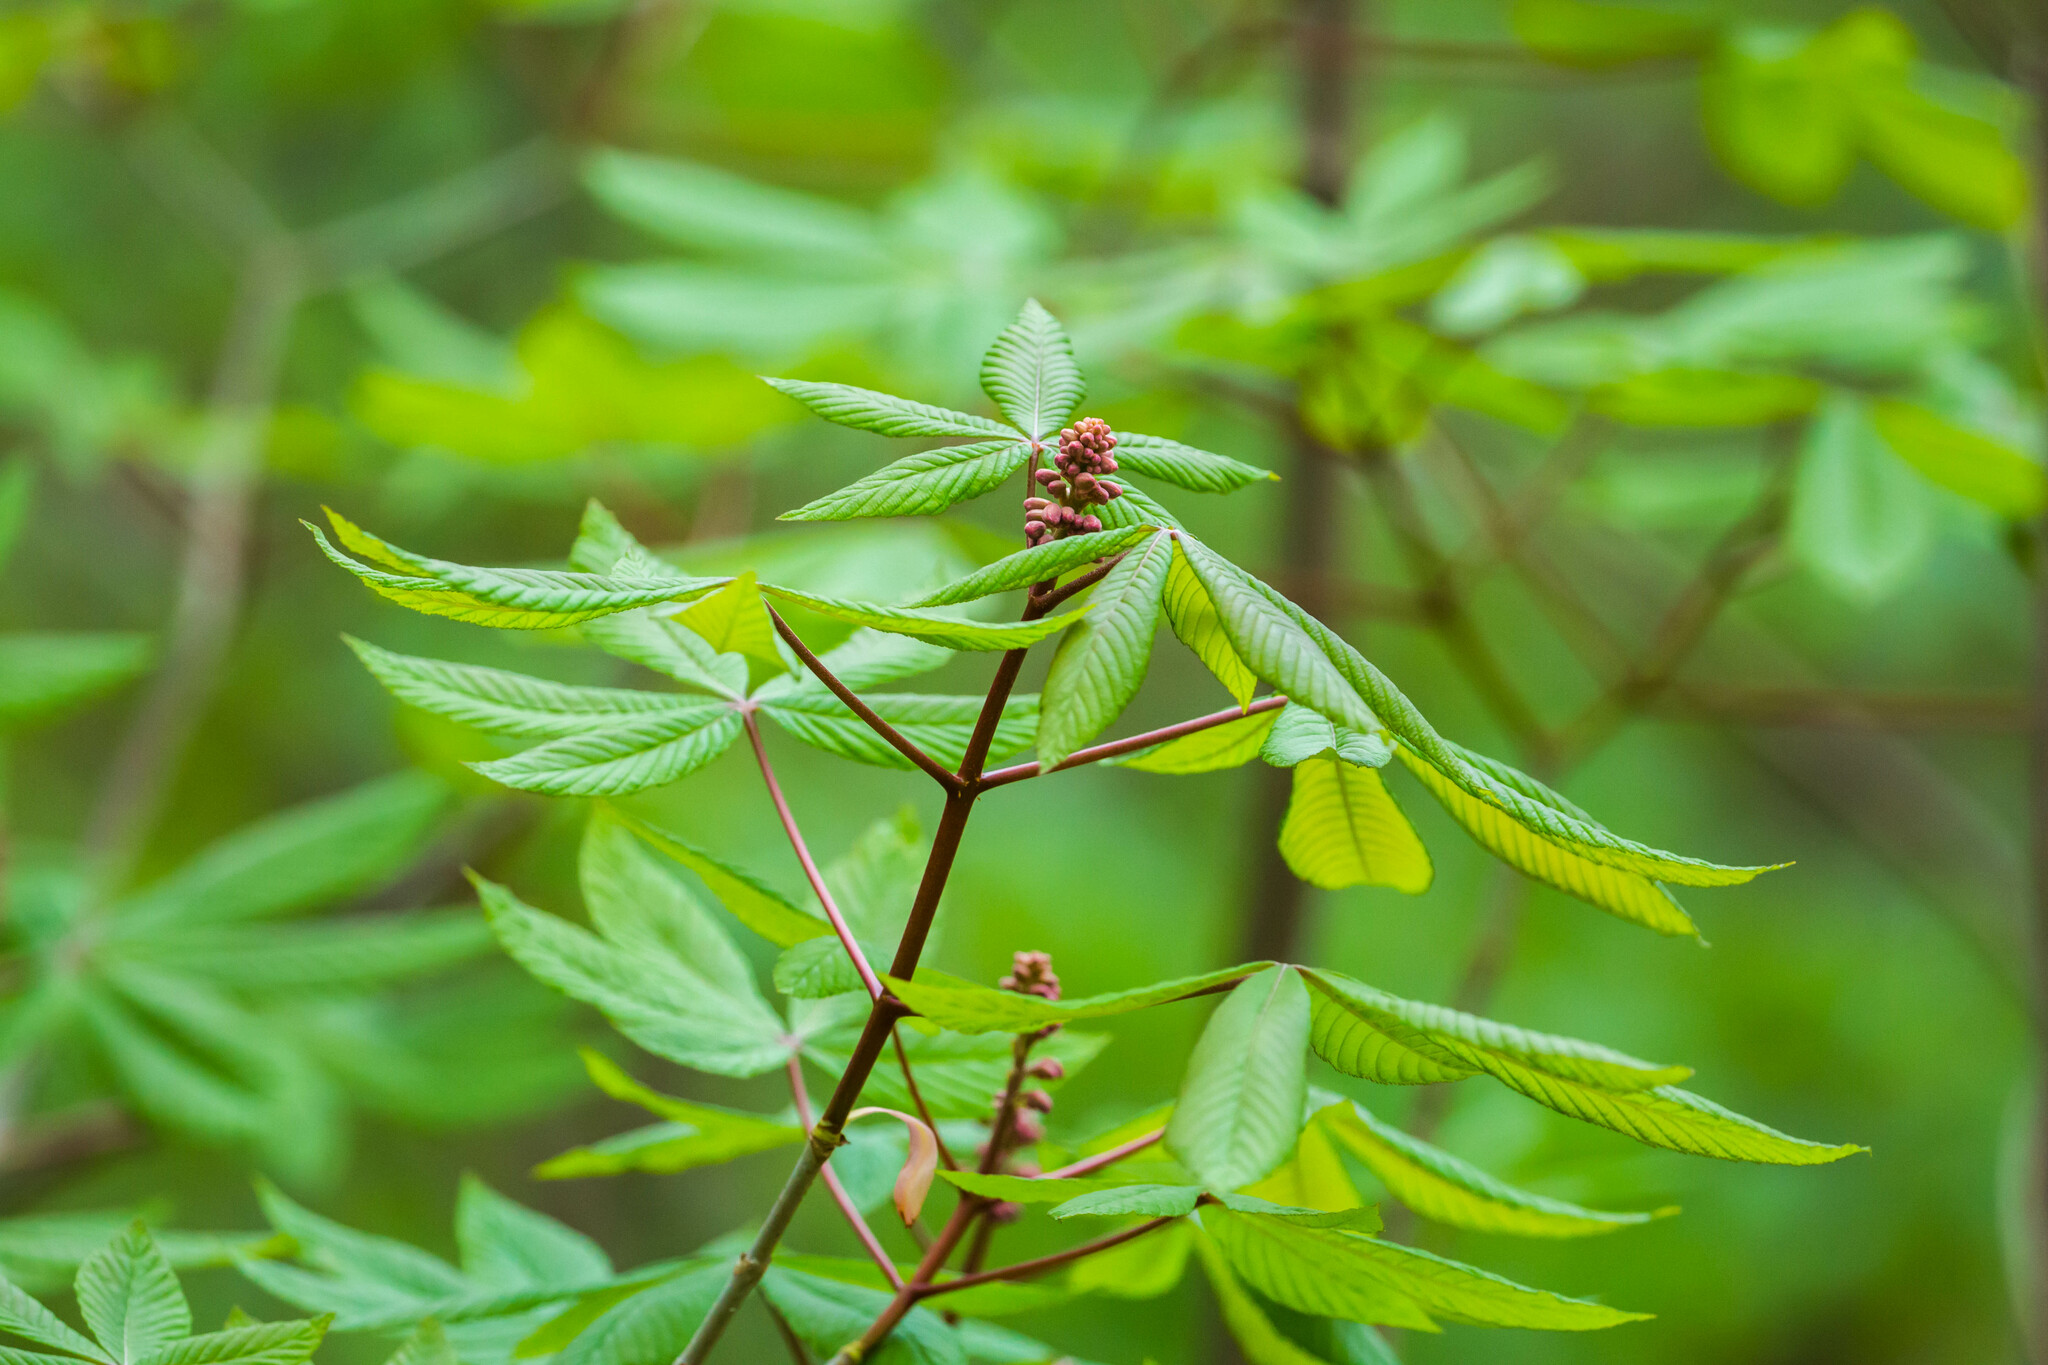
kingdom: Plantae
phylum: Tracheophyta
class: Magnoliopsida
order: Sapindales
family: Sapindaceae
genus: Aesculus
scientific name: Aesculus pavia
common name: Red buckeye
